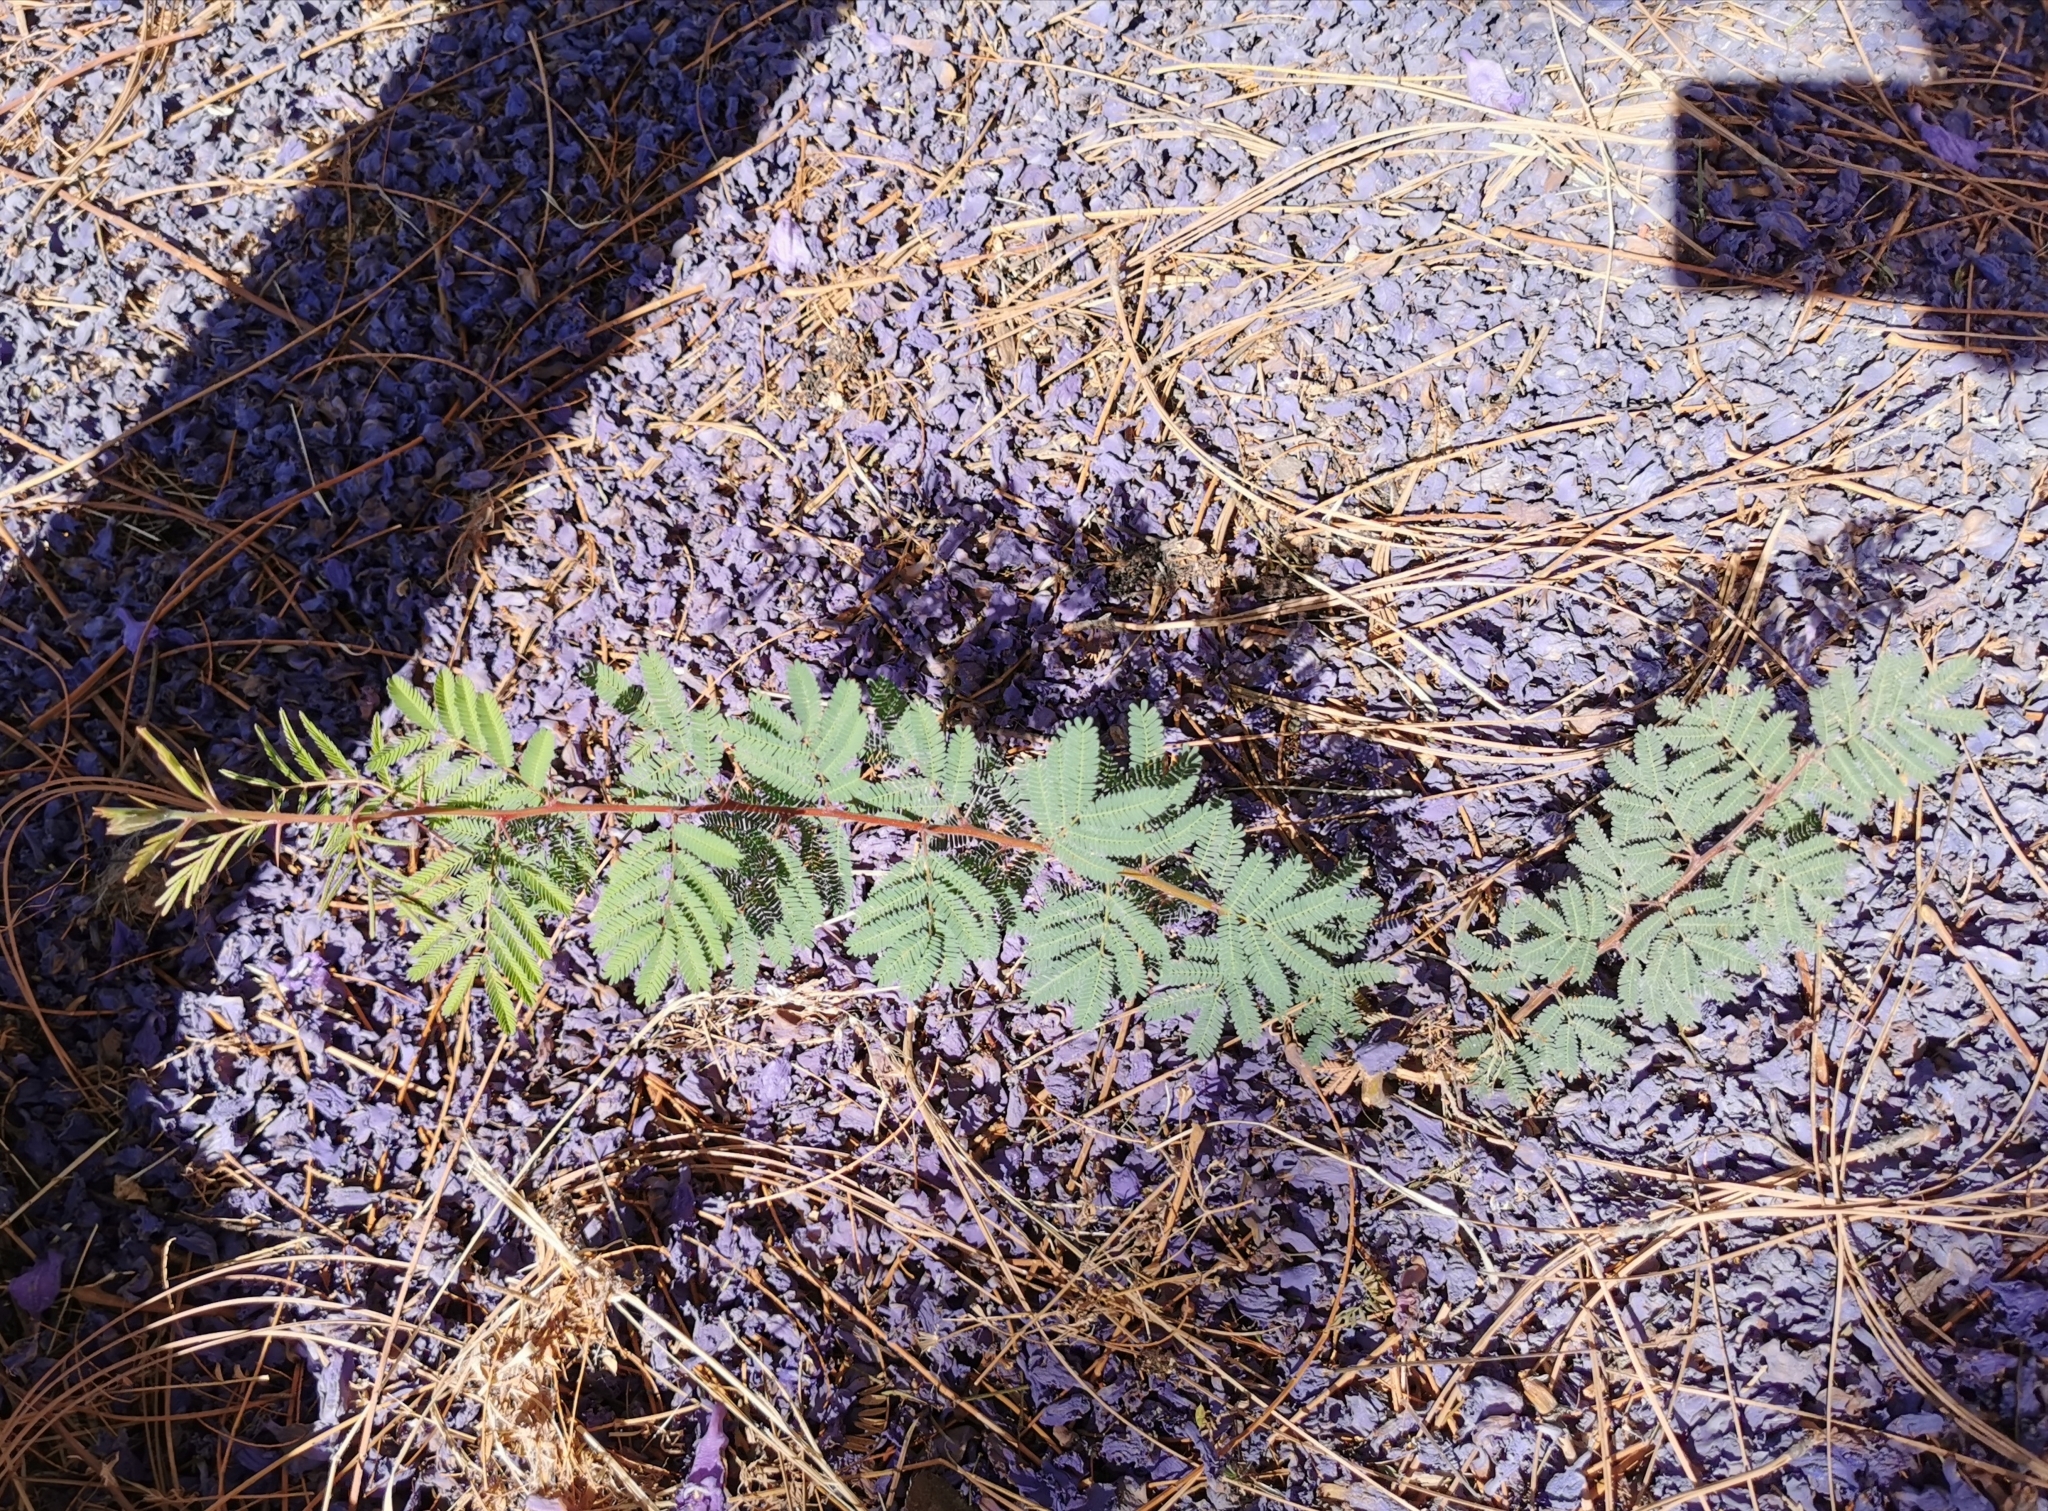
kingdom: Plantae
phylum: Tracheophyta
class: Magnoliopsida
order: Fabales
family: Fabaceae
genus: Vachellia
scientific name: Vachellia schaffneri
